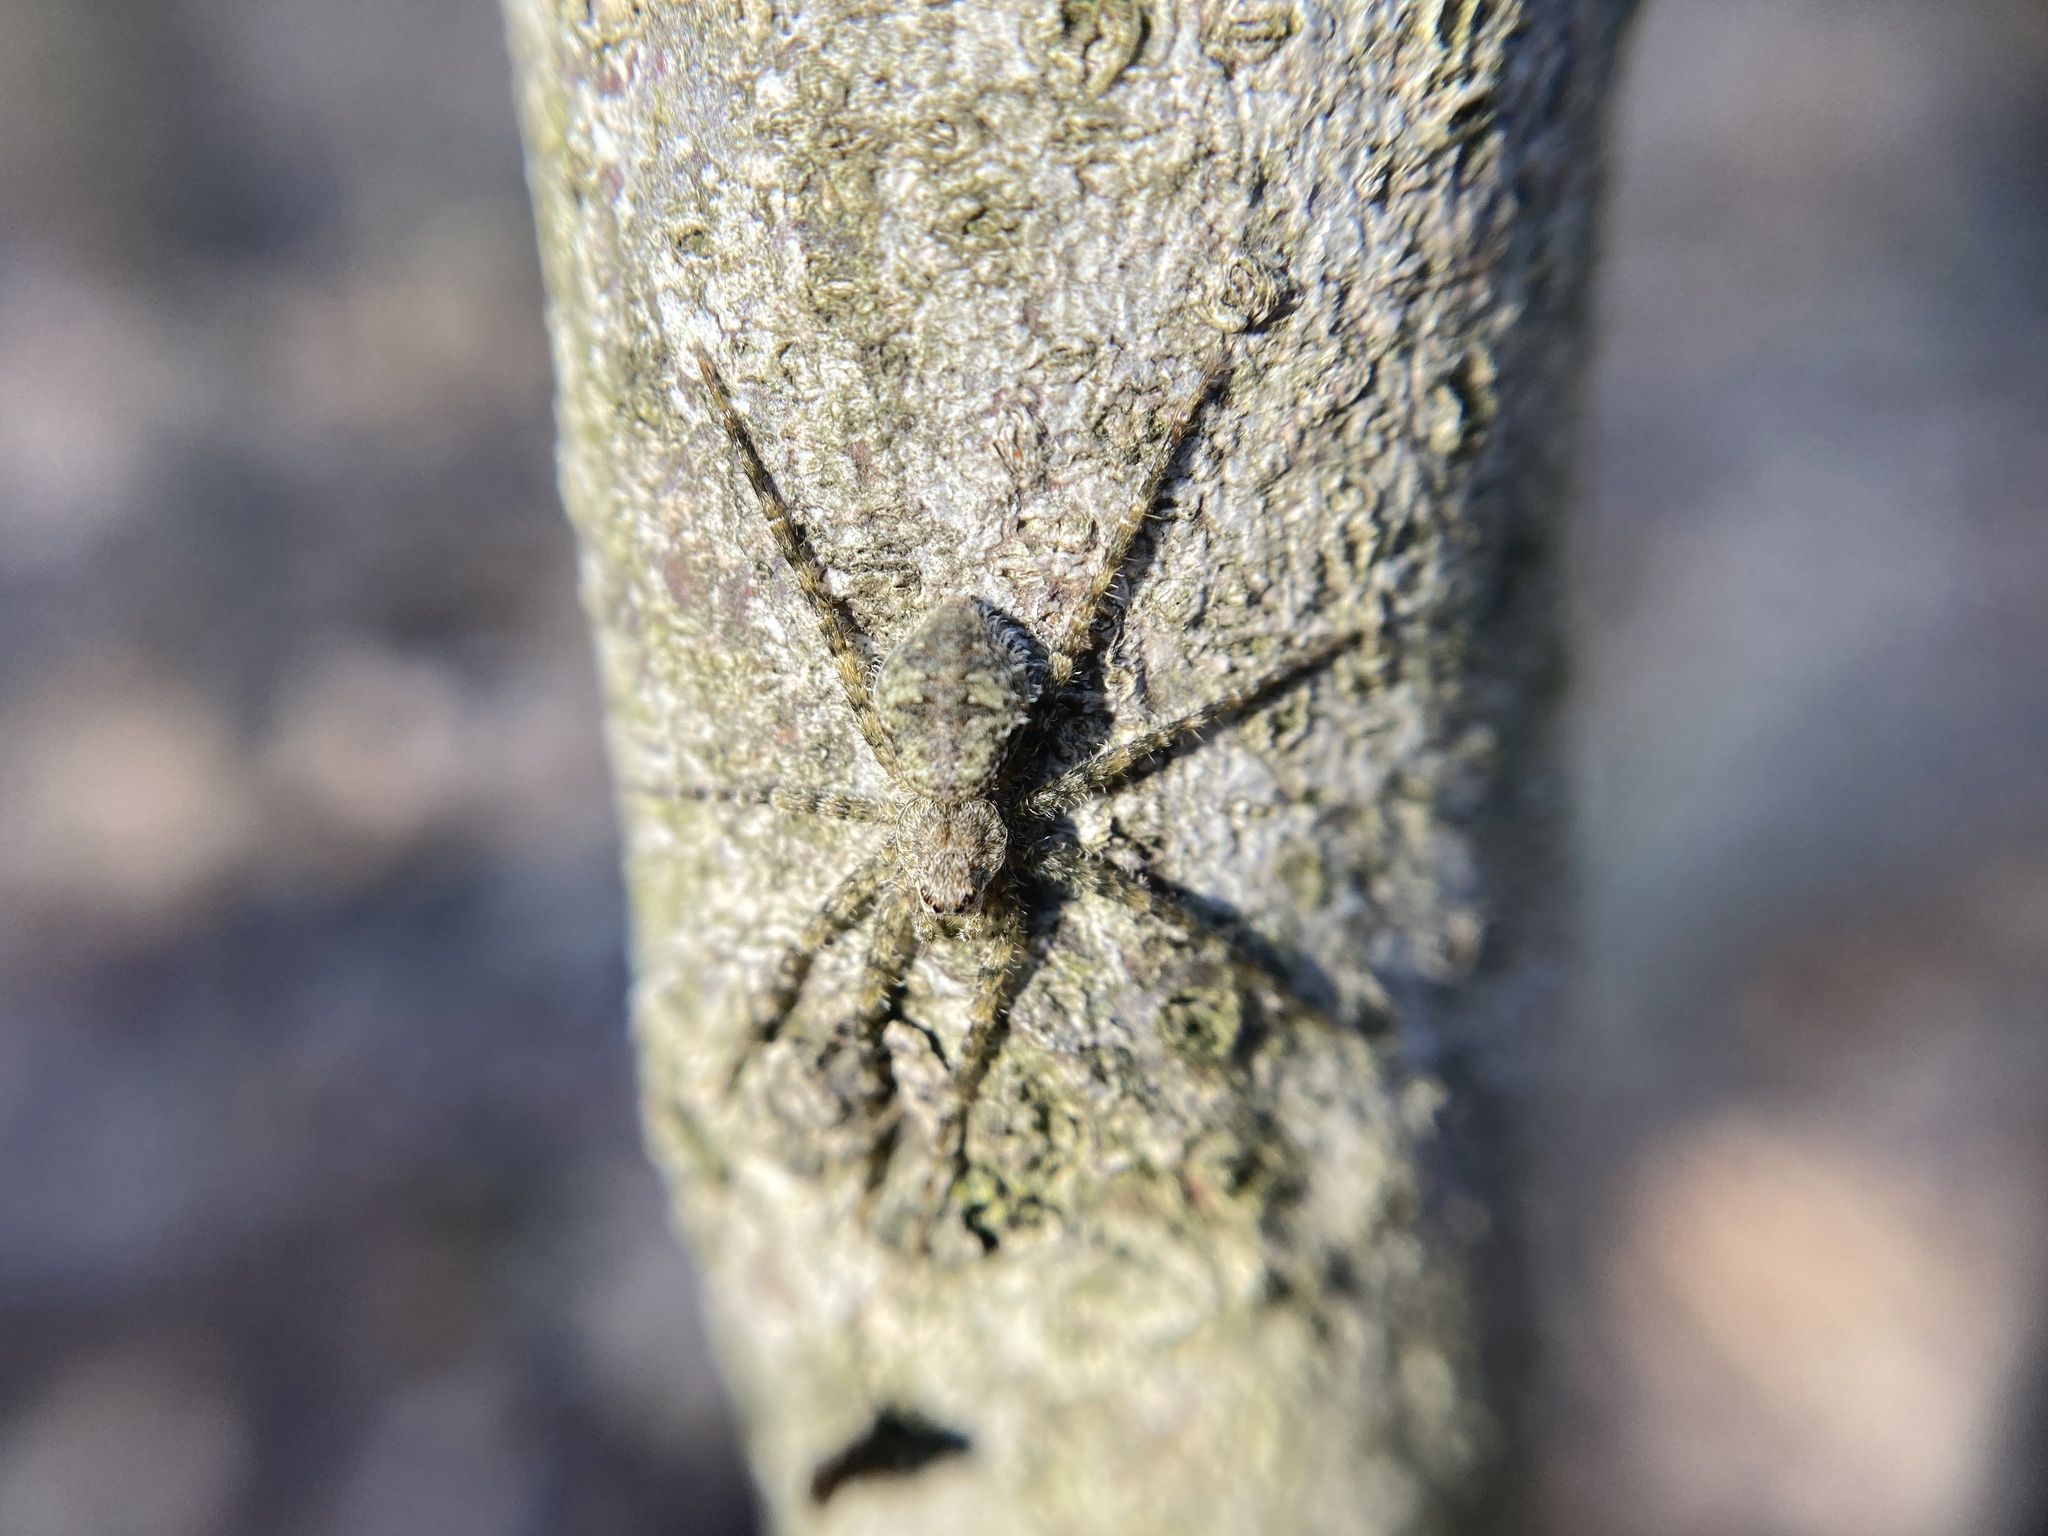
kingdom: Animalia
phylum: Arthropoda
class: Arachnida
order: Araneae
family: Pisauridae
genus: Dolomedes
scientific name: Dolomedes albineus
